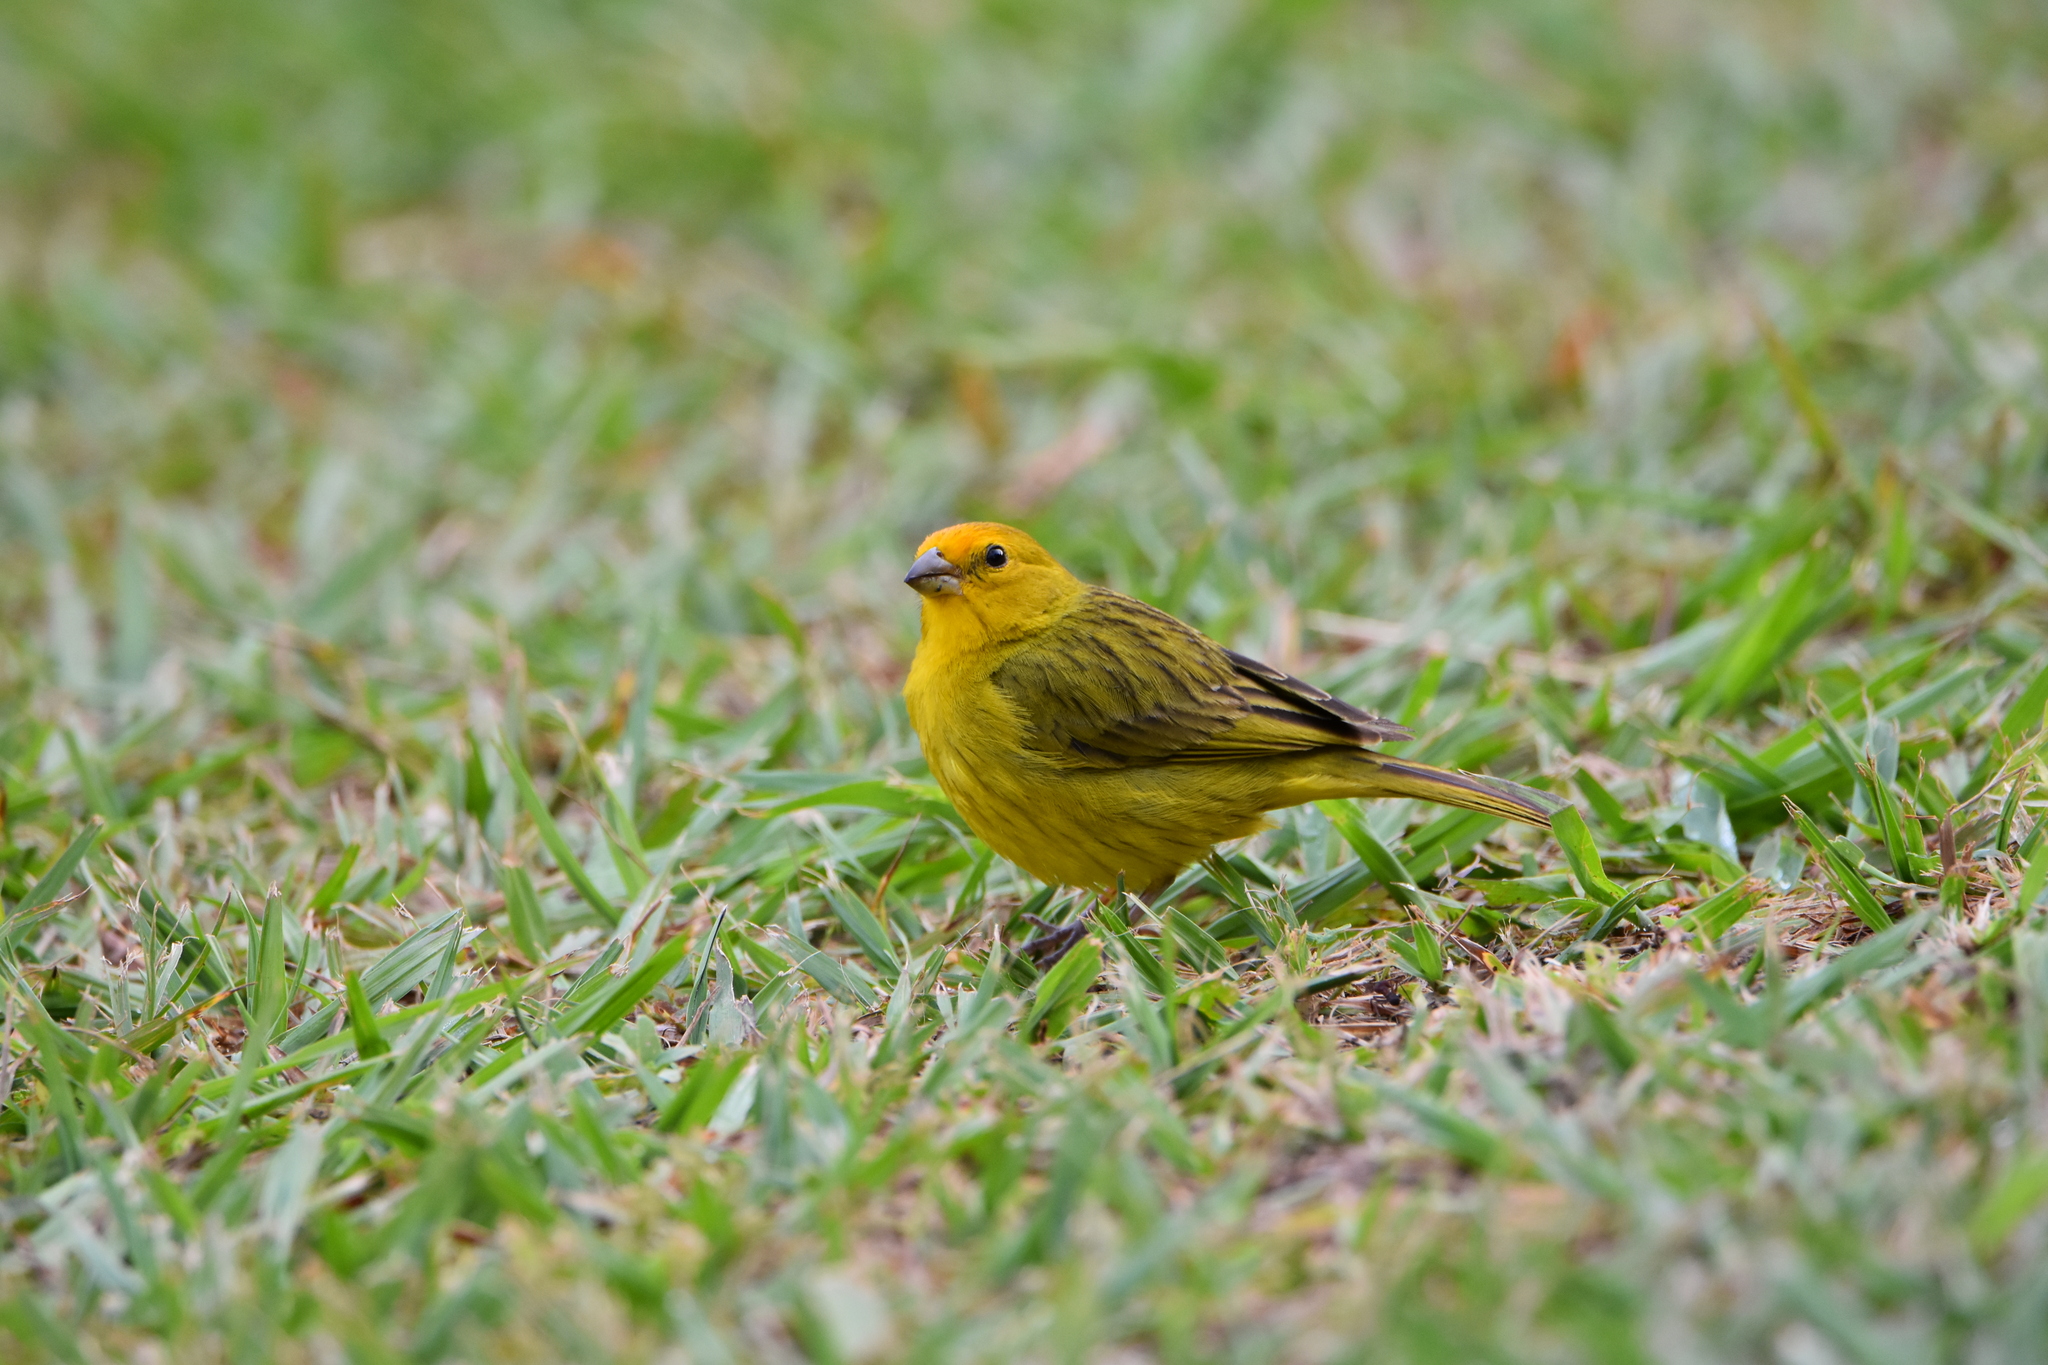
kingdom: Animalia
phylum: Chordata
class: Aves
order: Passeriformes
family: Thraupidae
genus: Sicalis
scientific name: Sicalis flaveola
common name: Saffron finch
